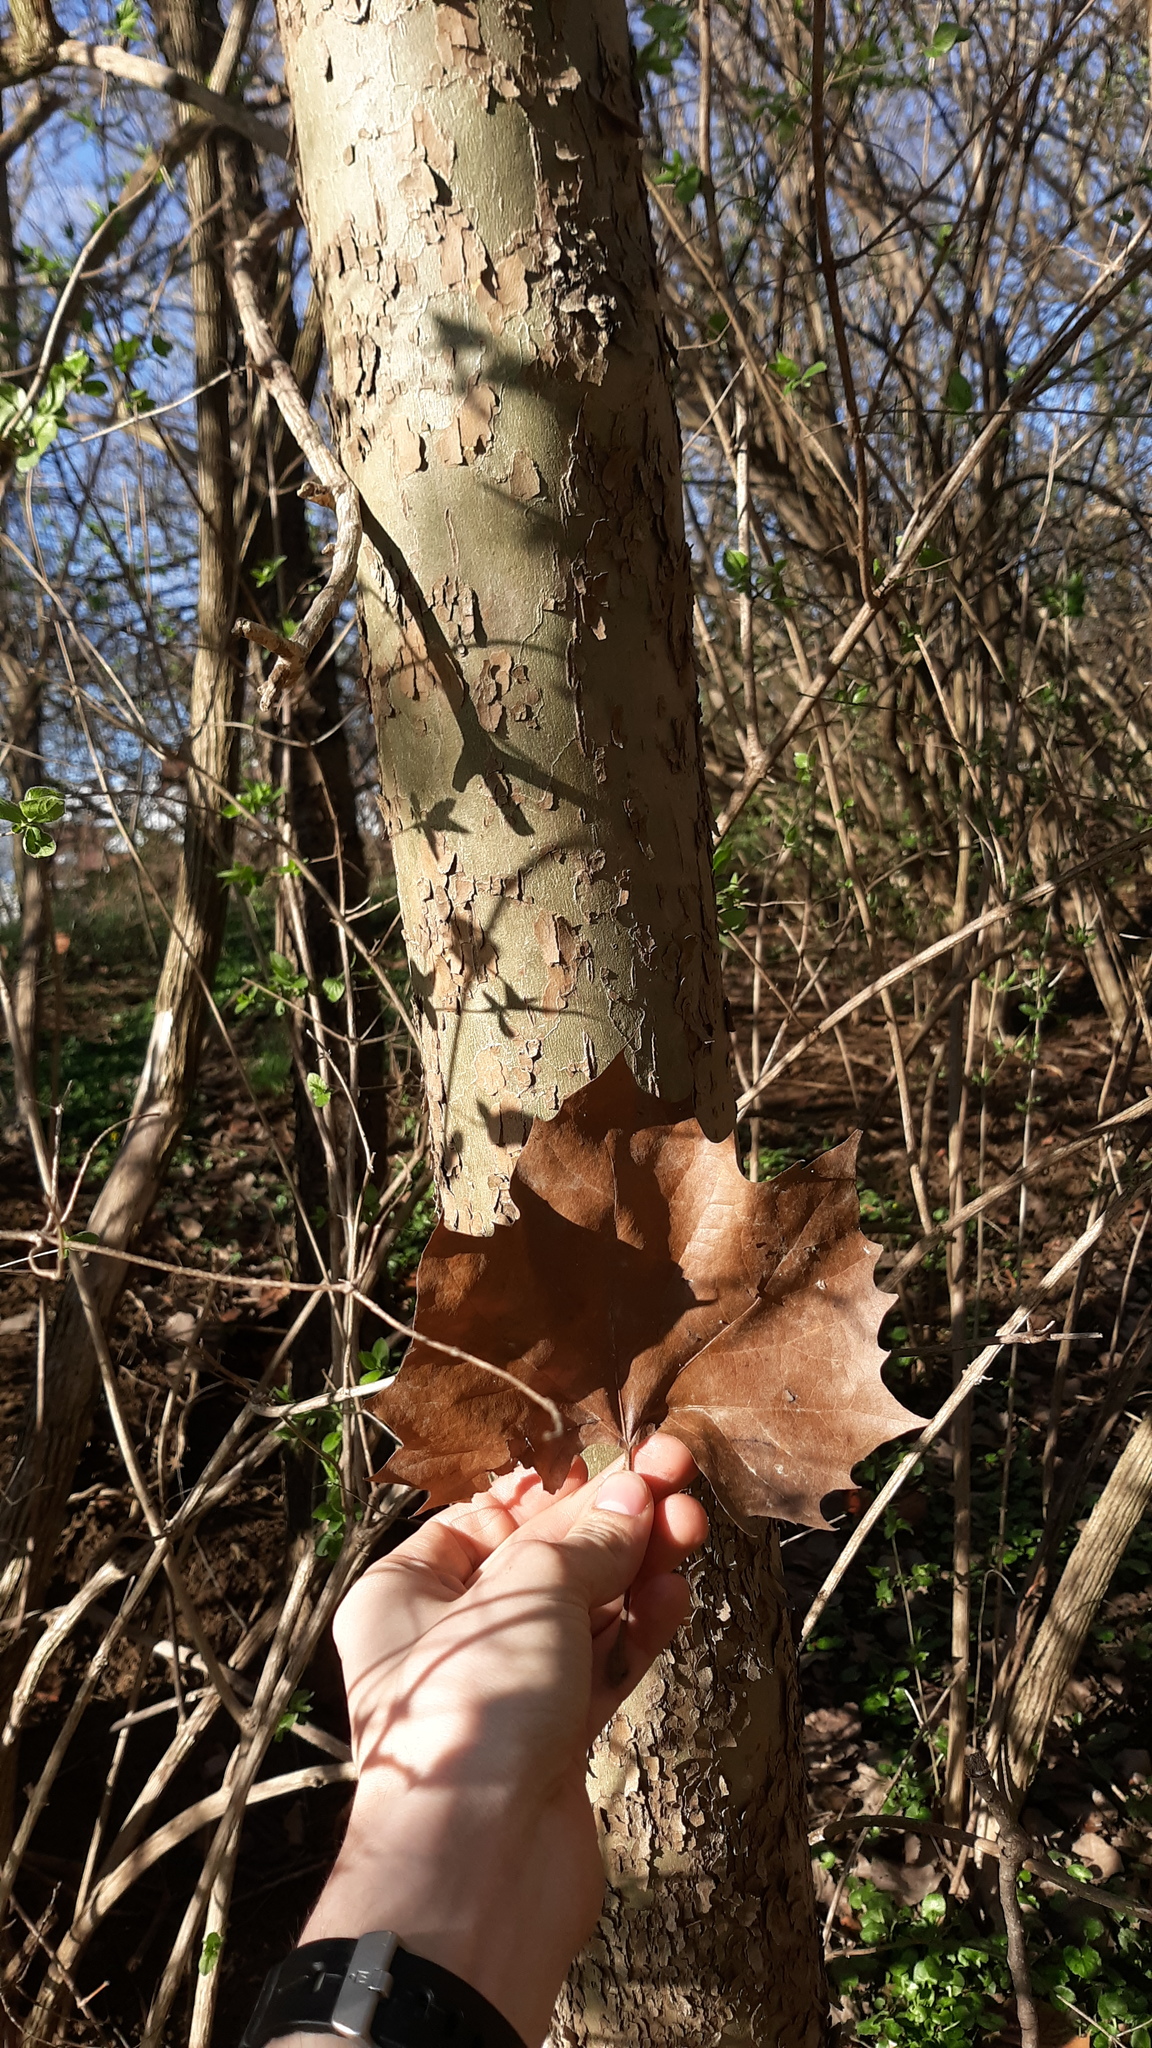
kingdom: Plantae
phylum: Tracheophyta
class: Magnoliopsida
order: Proteales
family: Platanaceae
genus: Platanus
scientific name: Platanus occidentalis
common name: American sycamore
